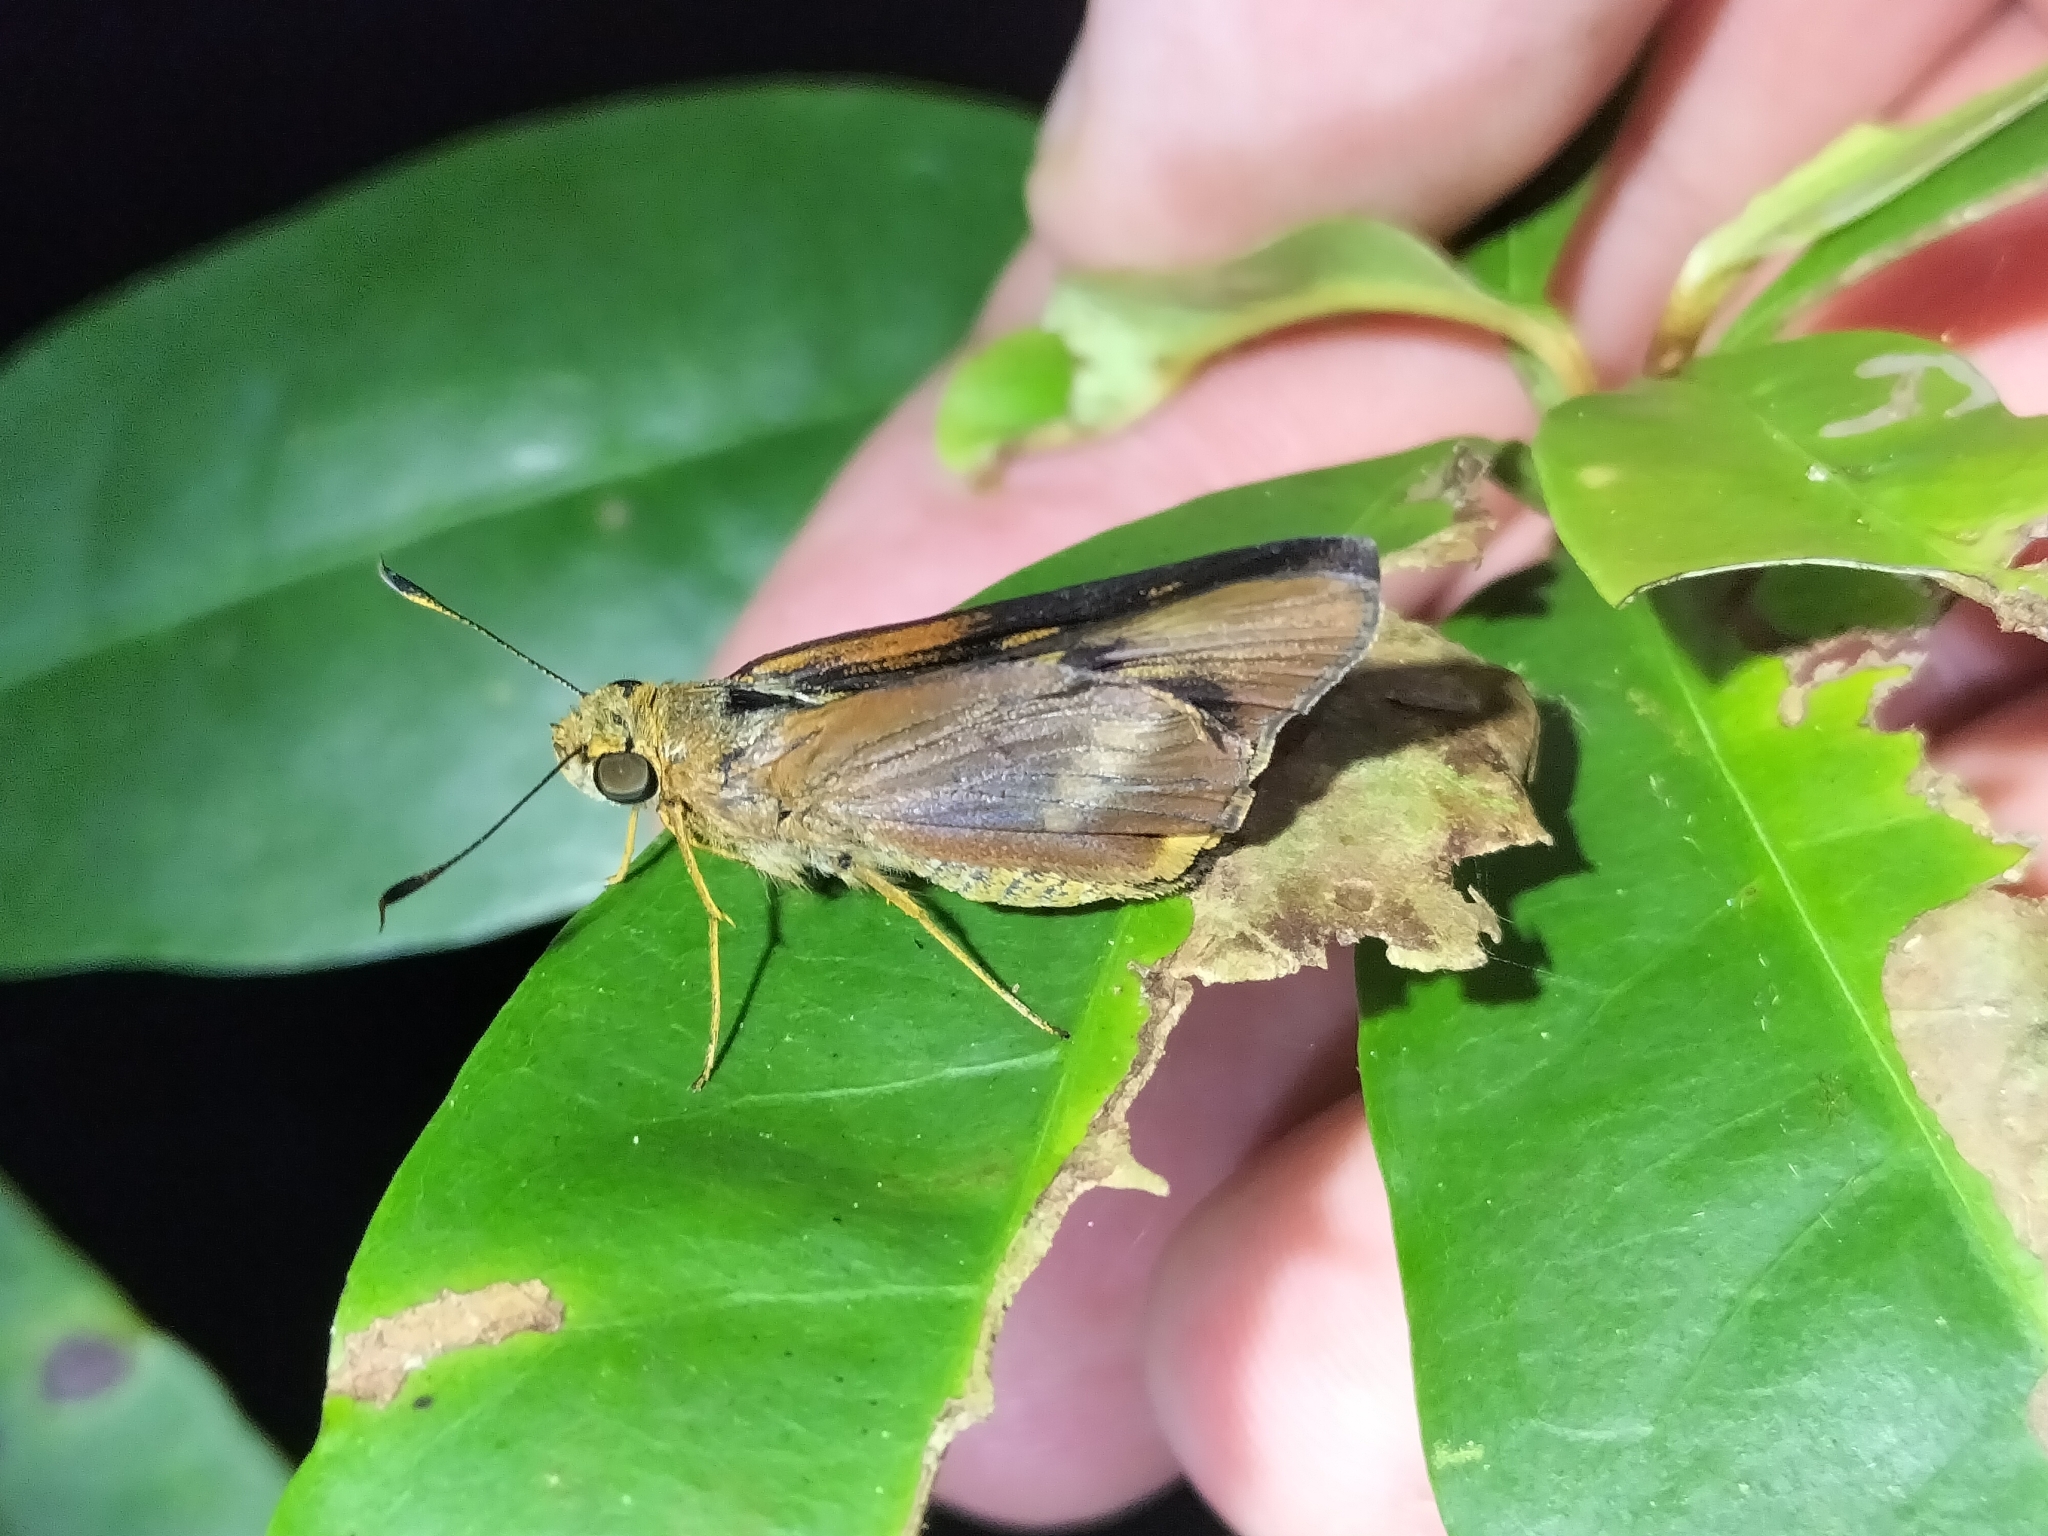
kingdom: Animalia
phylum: Arthropoda
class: Insecta
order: Lepidoptera
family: Hesperiidae
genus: Cephrenes
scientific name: Cephrenes augiades
